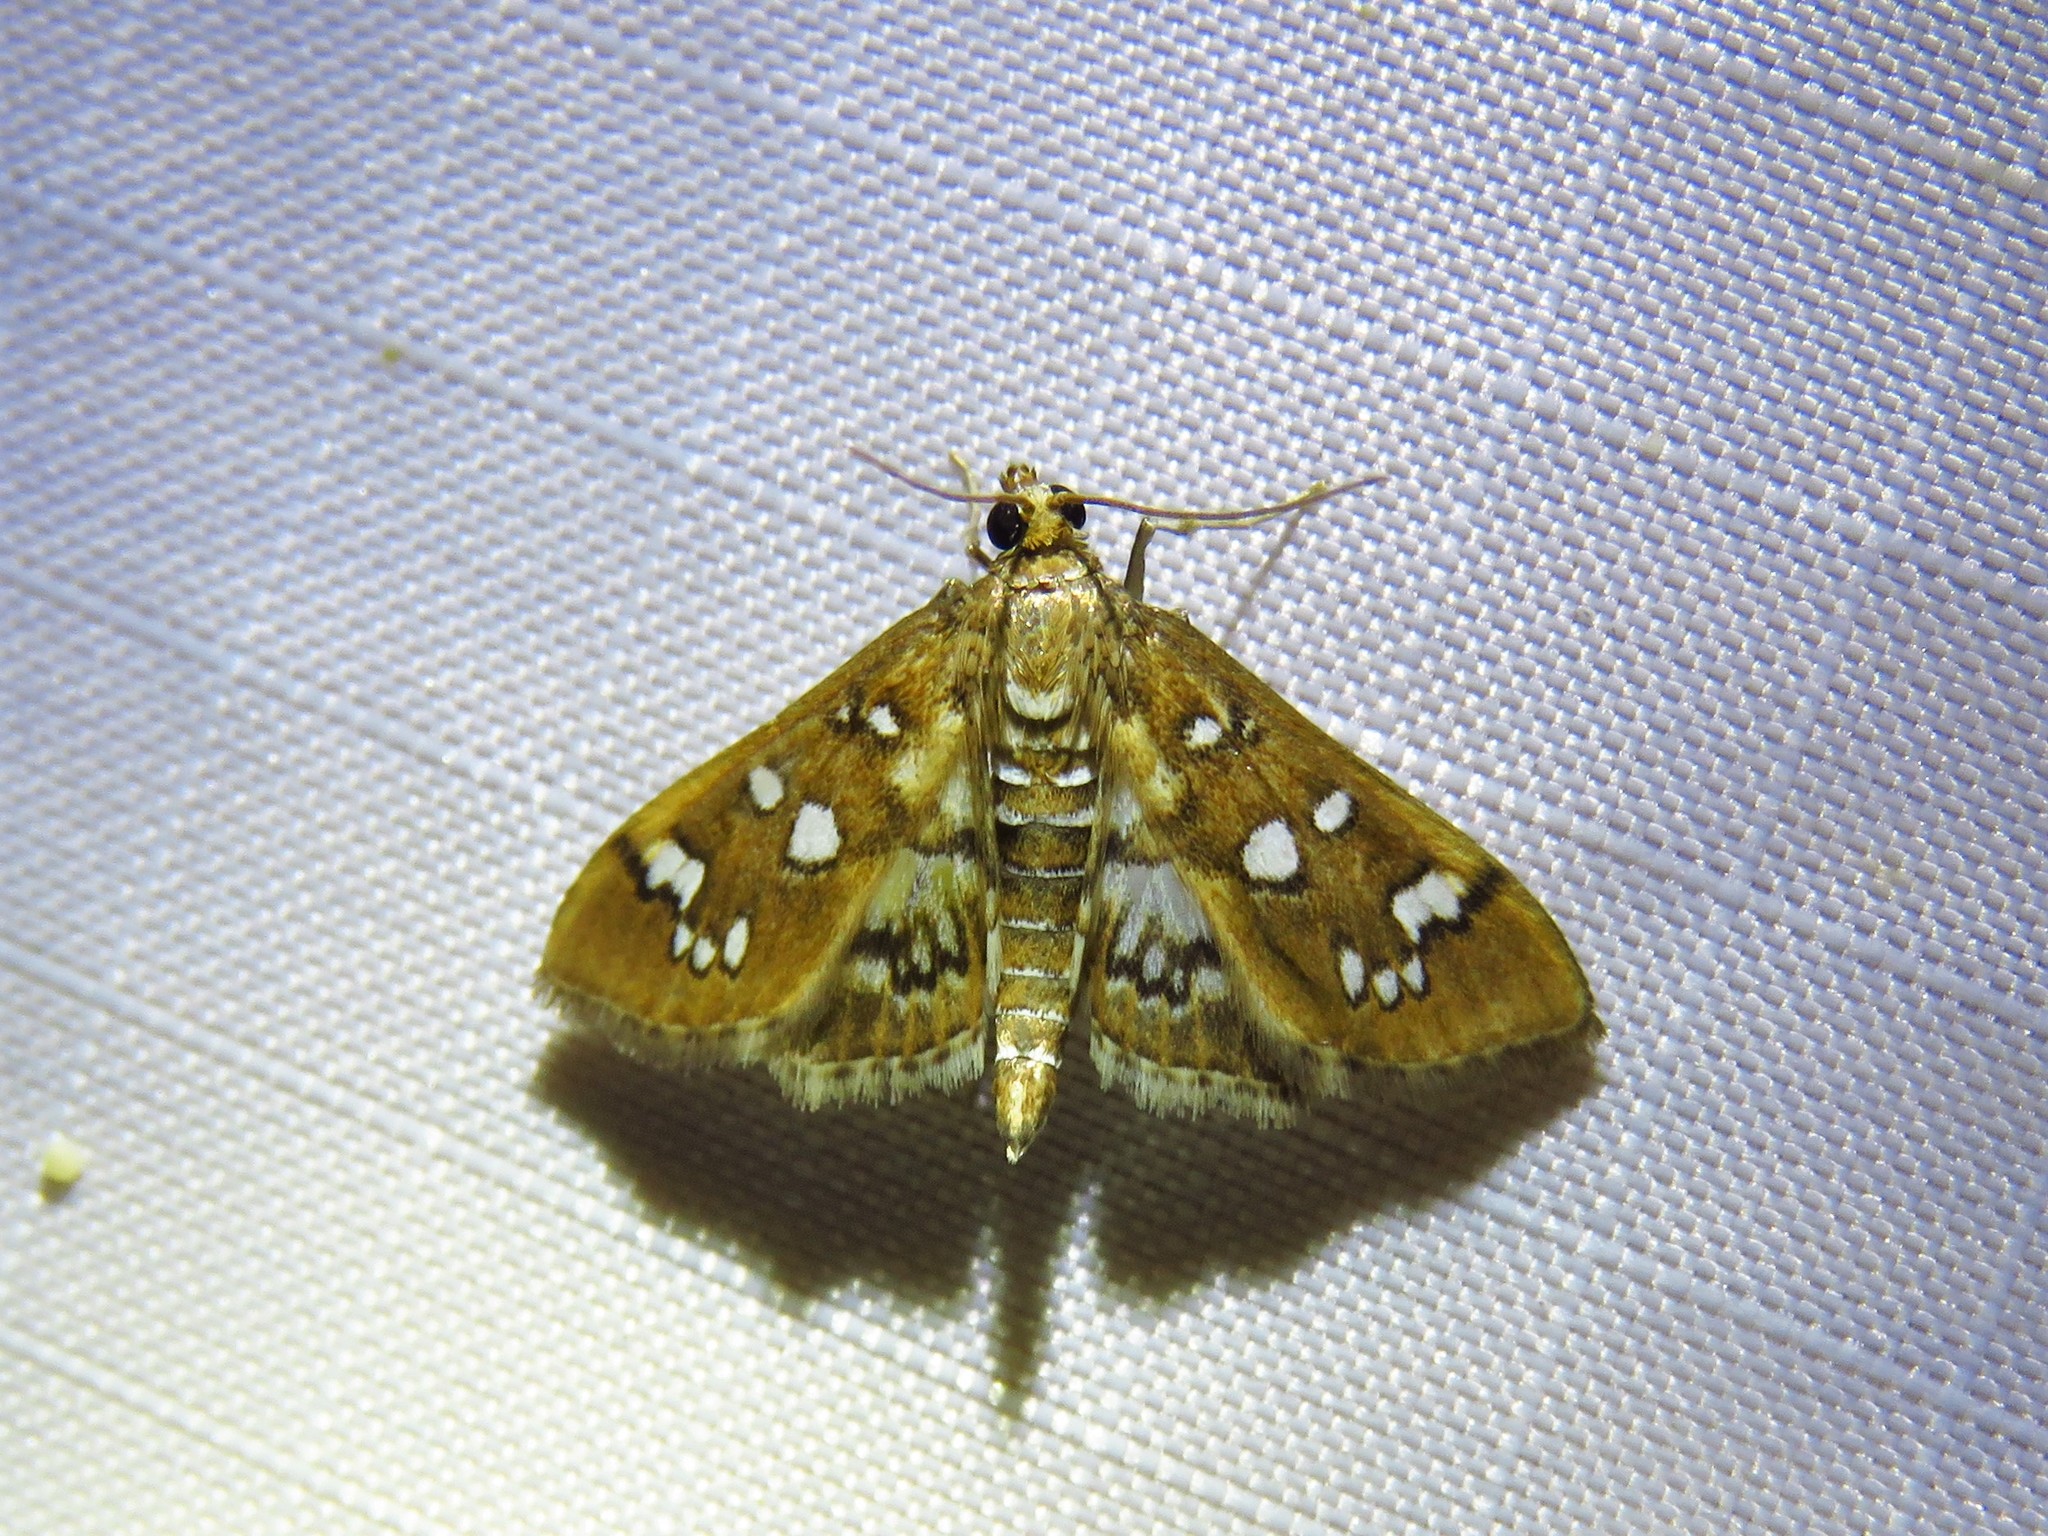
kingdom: Animalia
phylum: Arthropoda
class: Insecta
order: Lepidoptera
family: Crambidae
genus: Diastictis
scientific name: Diastictis fracturalis
